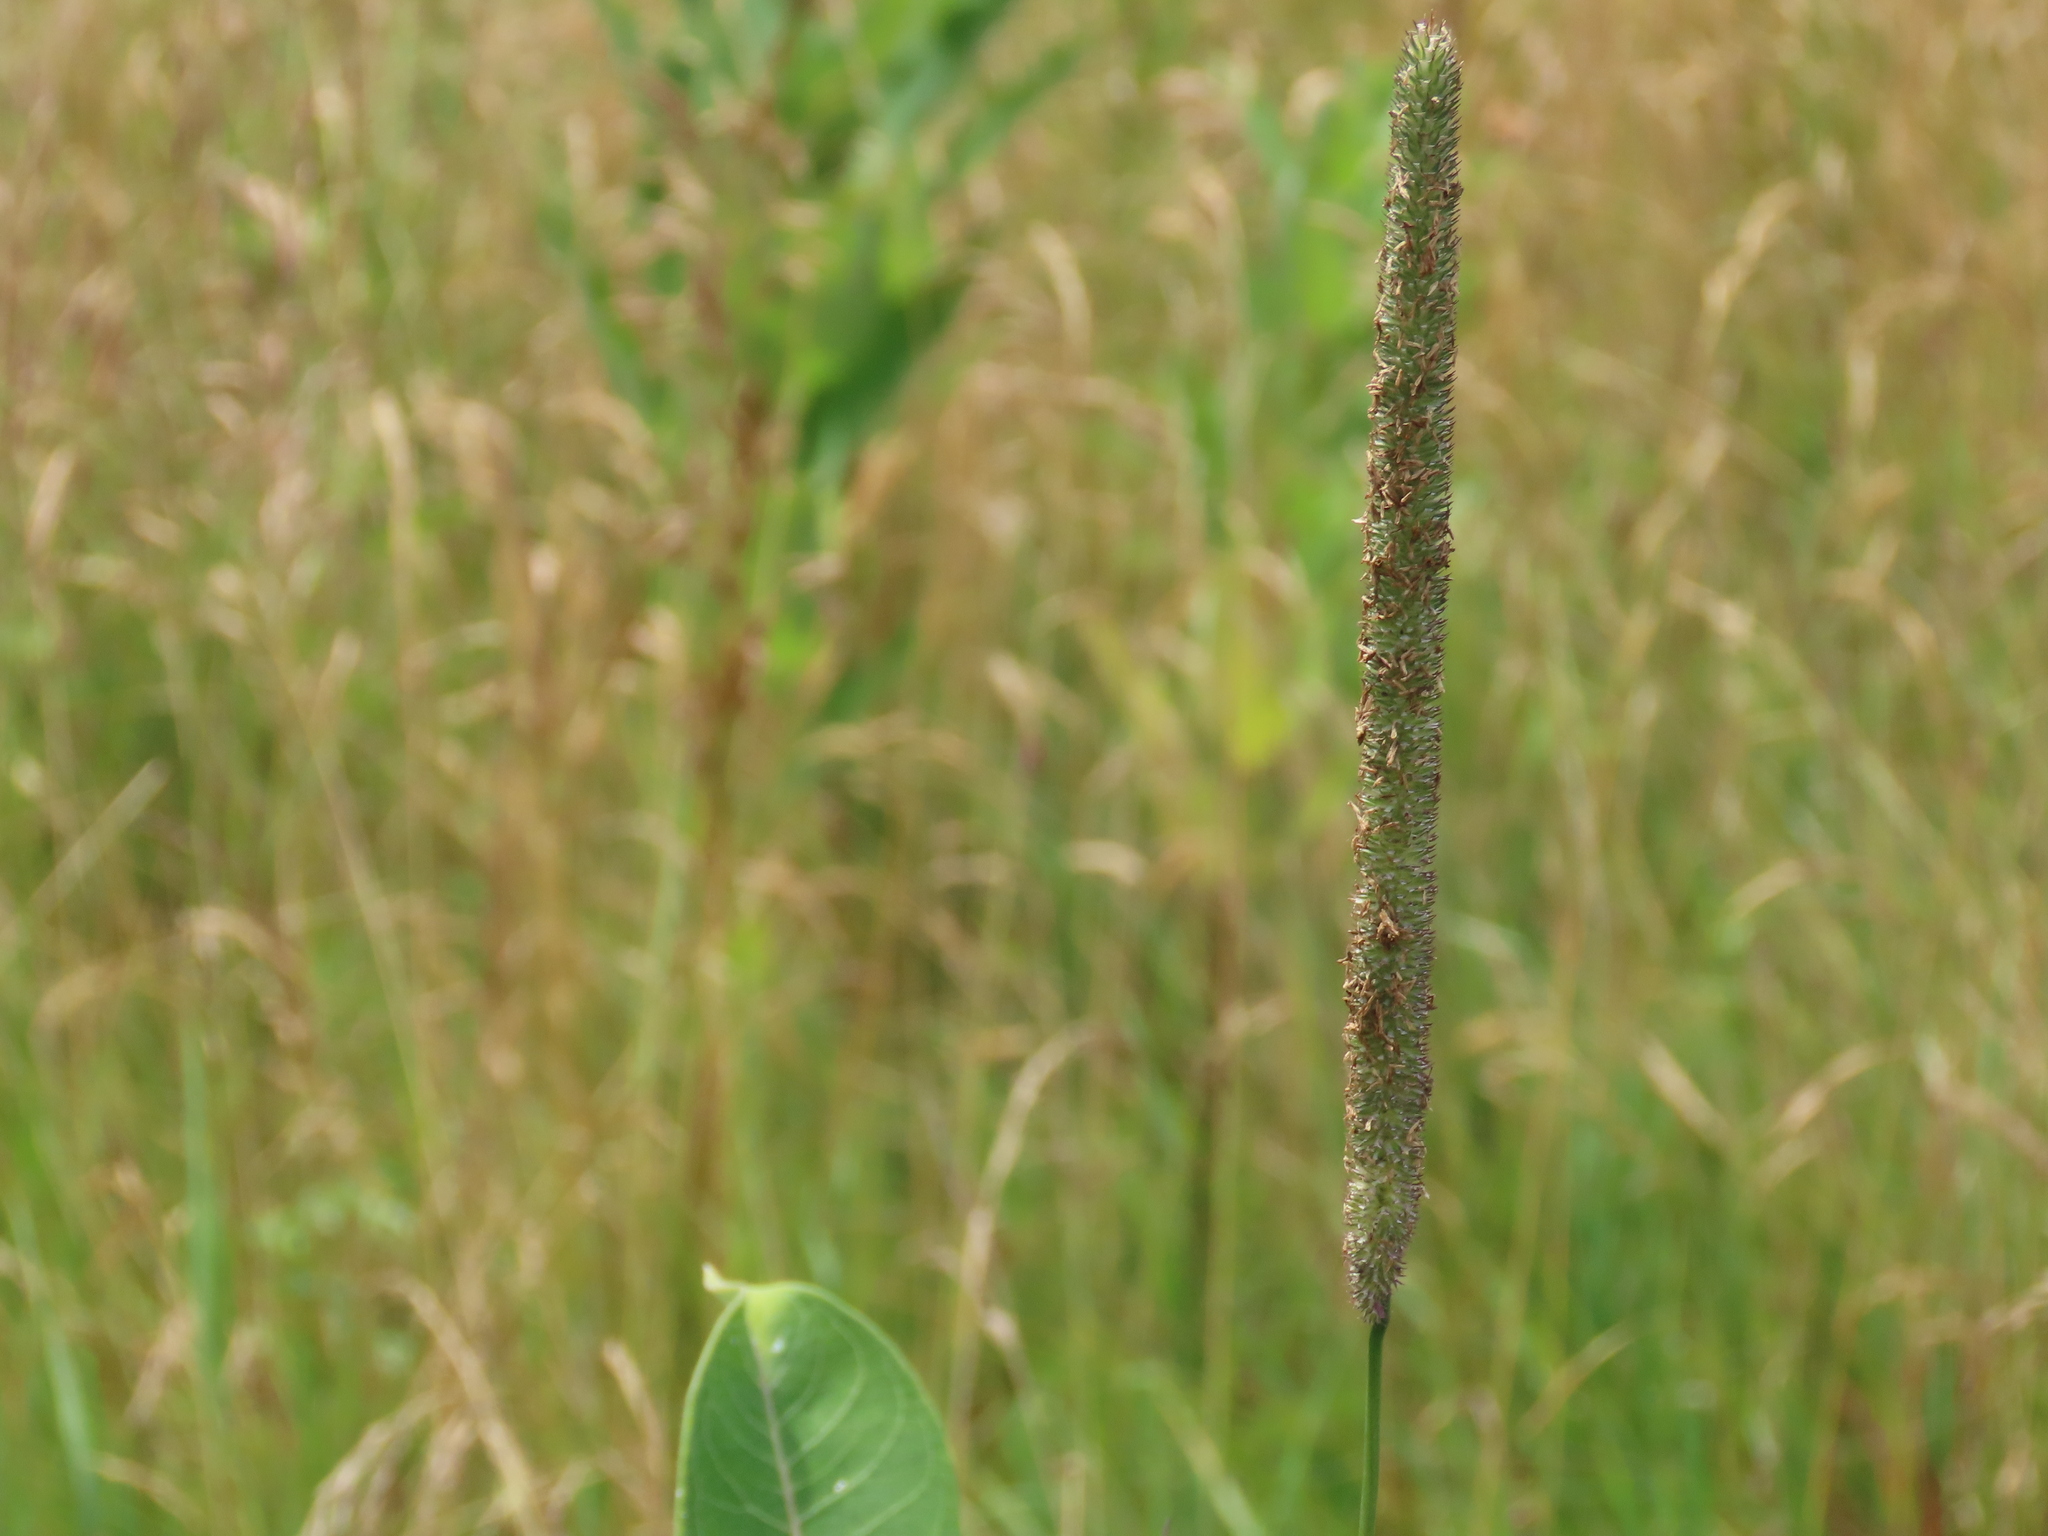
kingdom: Plantae
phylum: Tracheophyta
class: Liliopsida
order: Poales
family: Poaceae
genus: Phleum
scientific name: Phleum pratense
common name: Timothy grass
